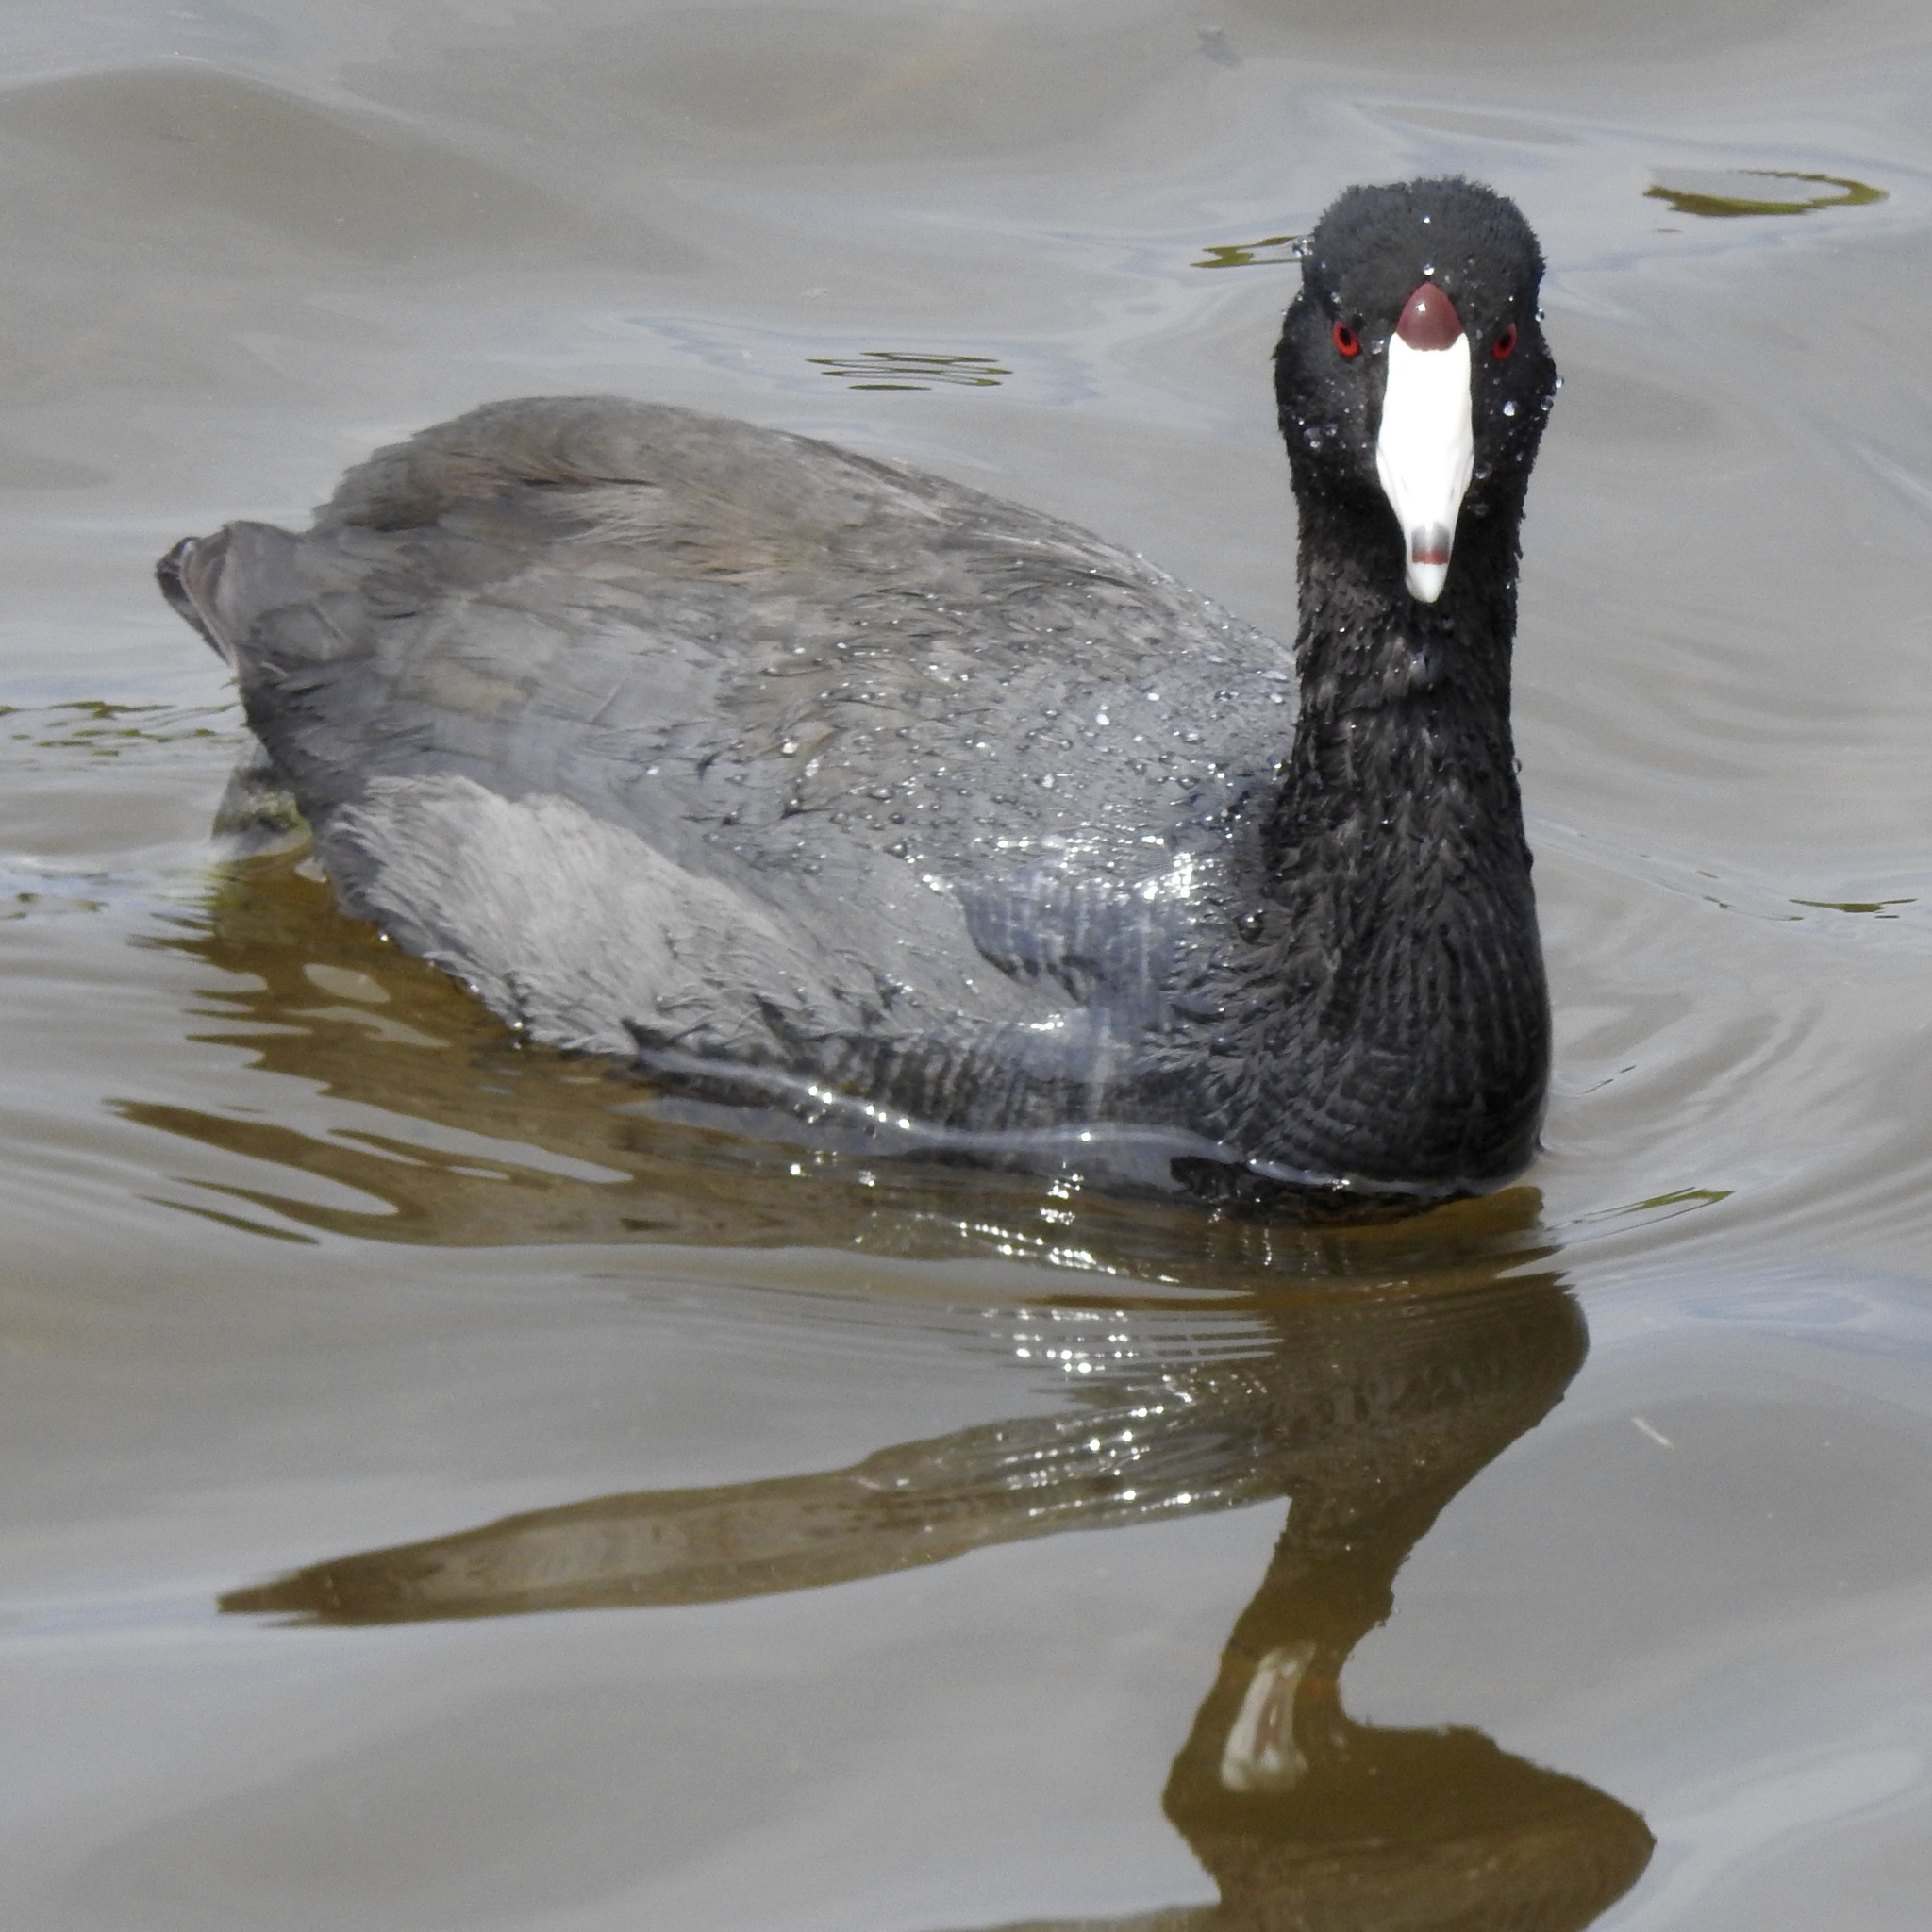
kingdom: Animalia
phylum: Chordata
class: Aves
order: Gruiformes
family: Rallidae
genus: Fulica
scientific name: Fulica americana
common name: American coot
